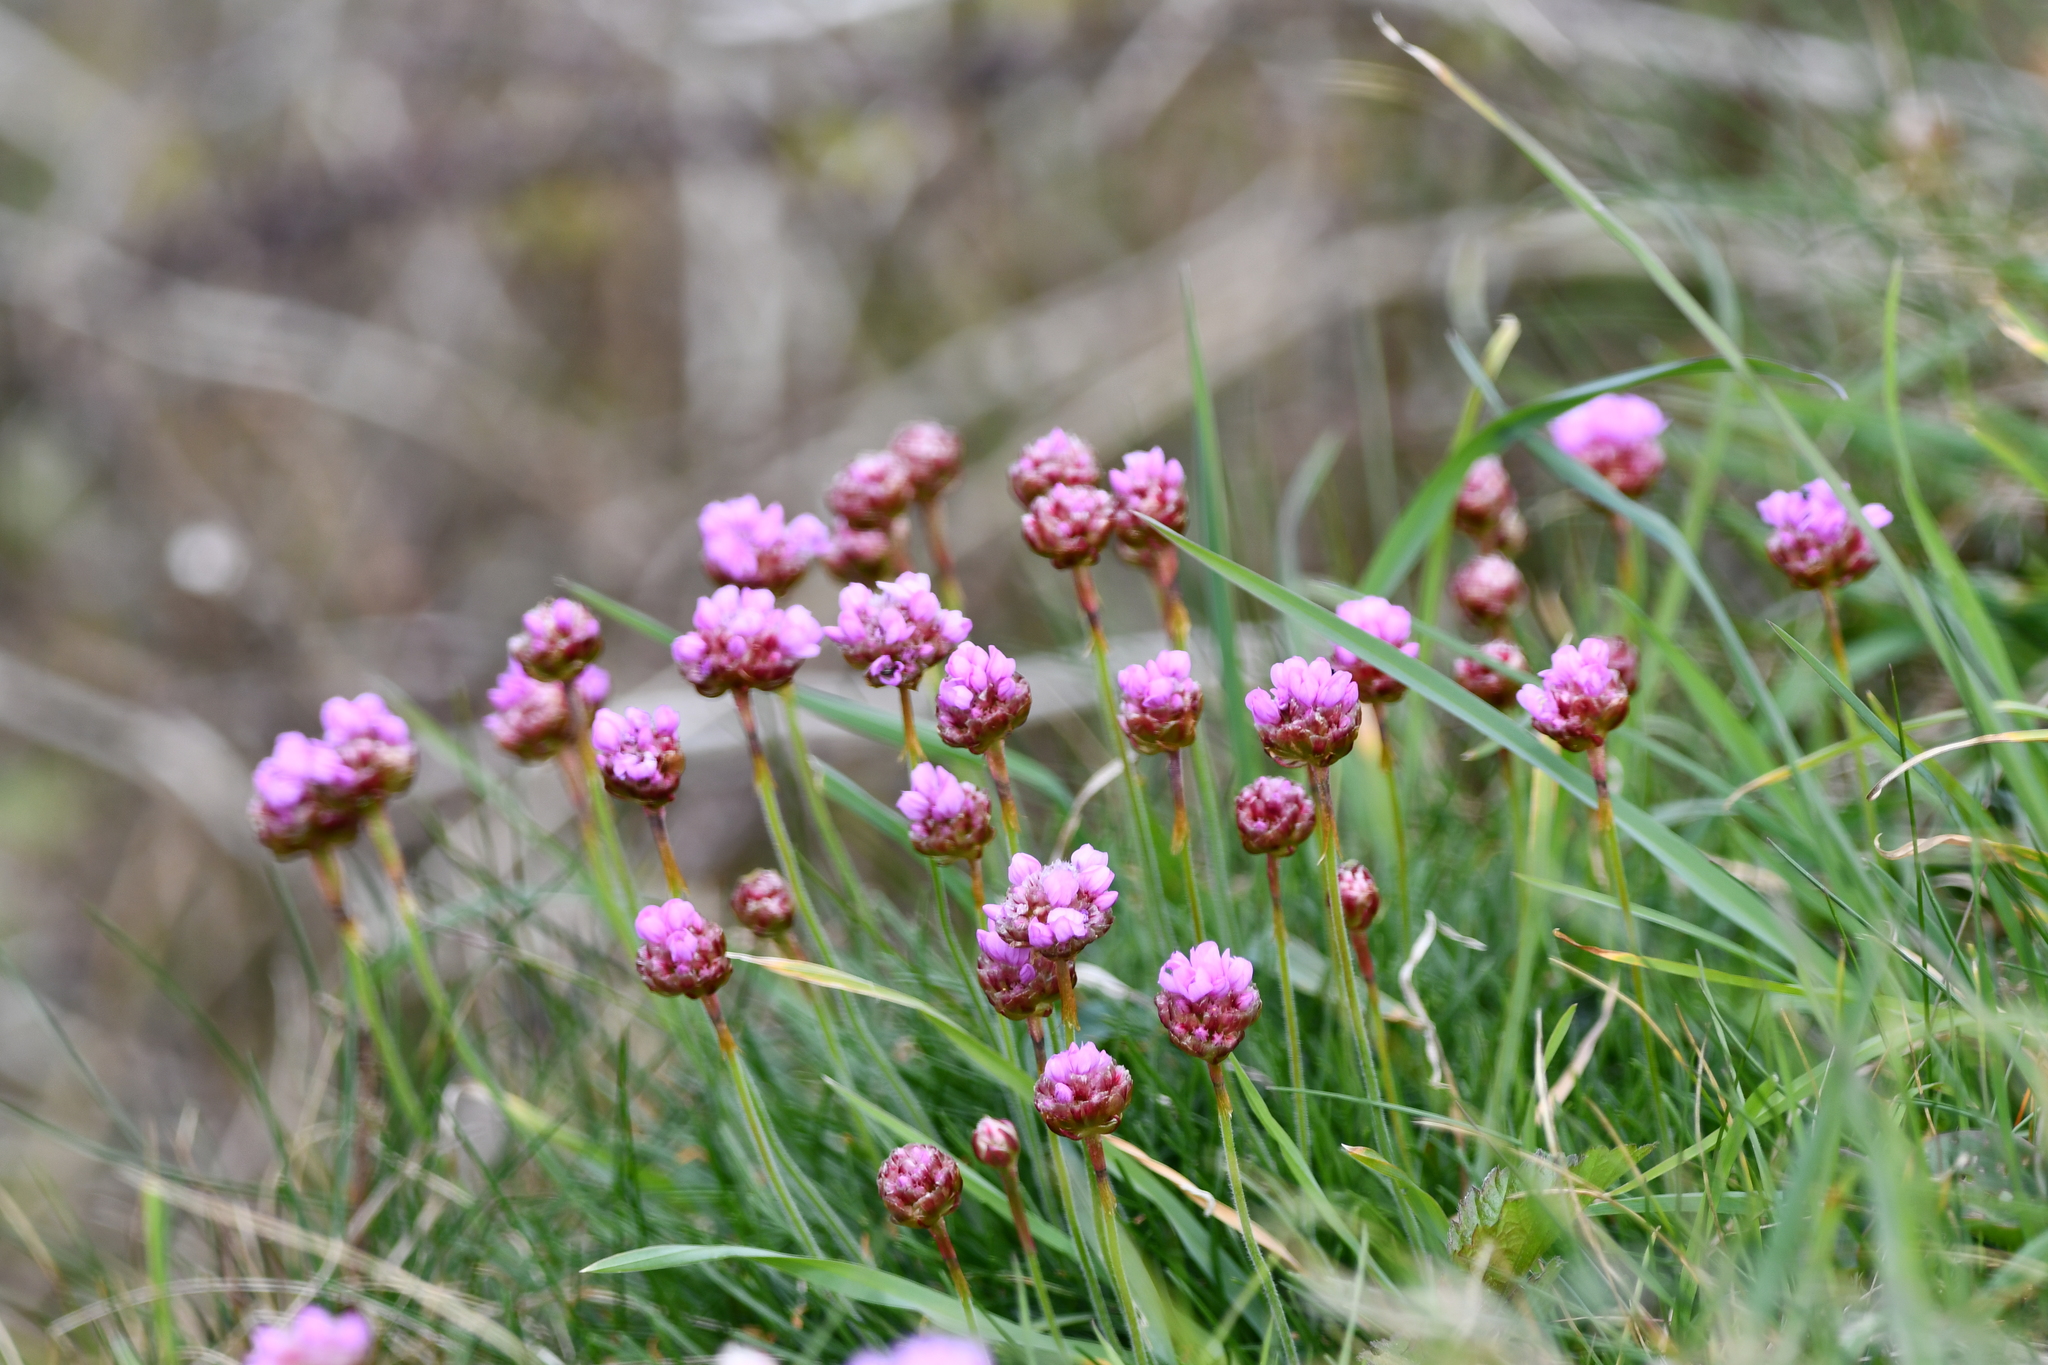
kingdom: Plantae
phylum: Tracheophyta
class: Magnoliopsida
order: Caryophyllales
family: Plumbaginaceae
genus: Armeria
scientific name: Armeria maritima
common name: Thrift
